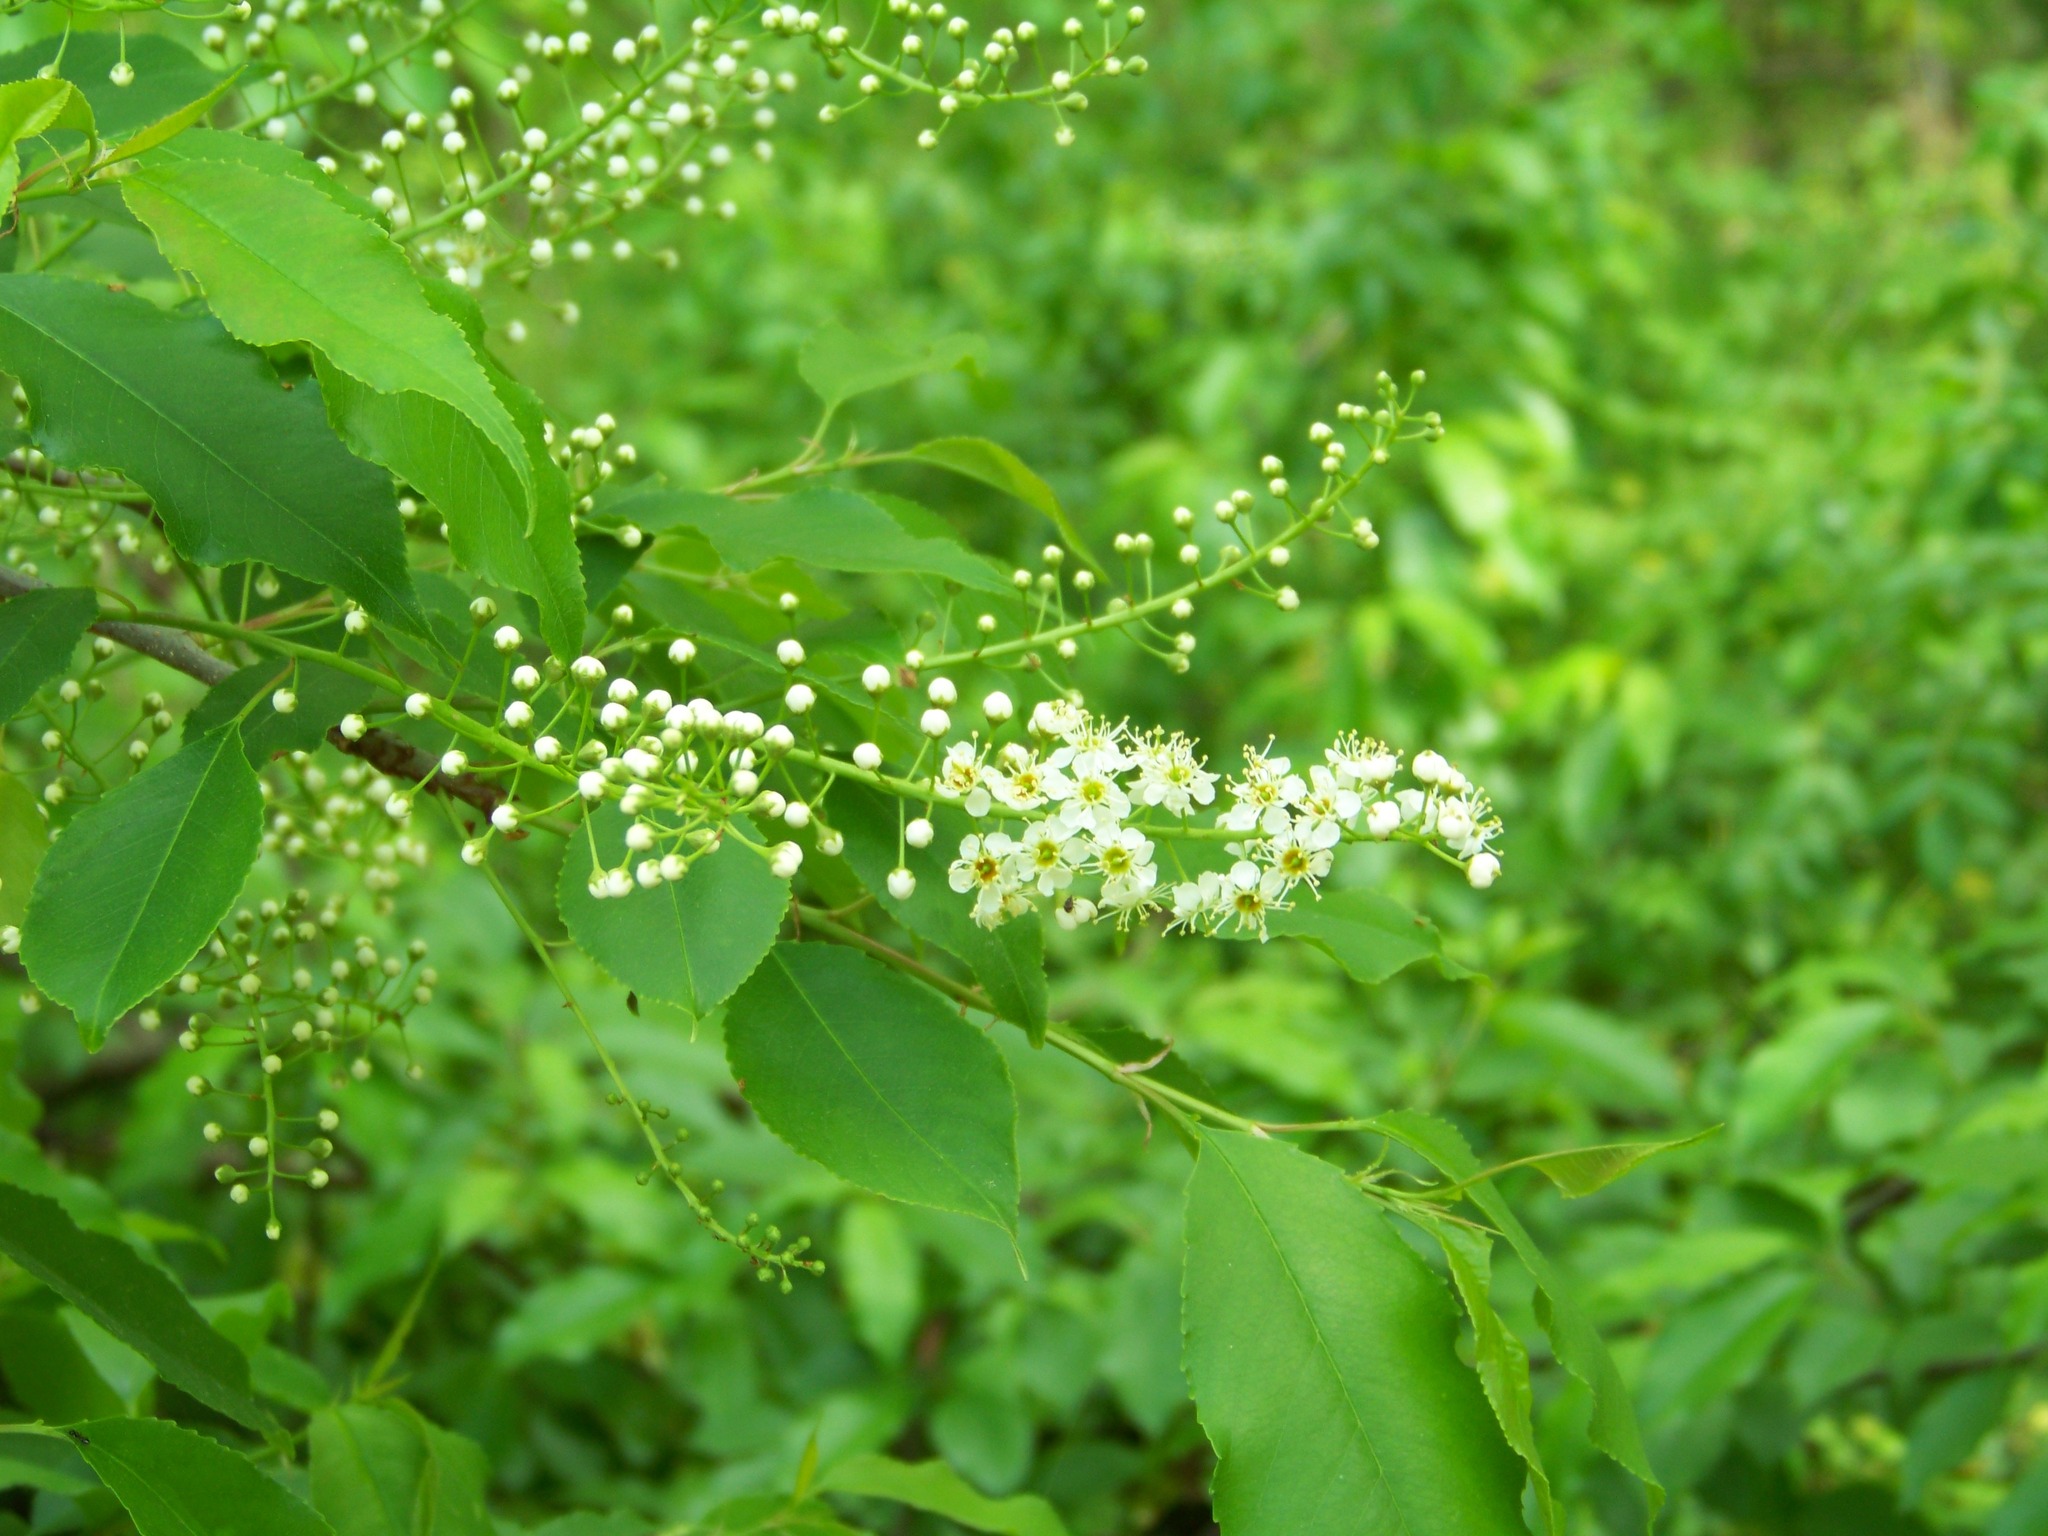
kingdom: Plantae
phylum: Tracheophyta
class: Magnoliopsida
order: Rosales
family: Rosaceae
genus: Prunus
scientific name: Prunus serotina
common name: Black cherry
